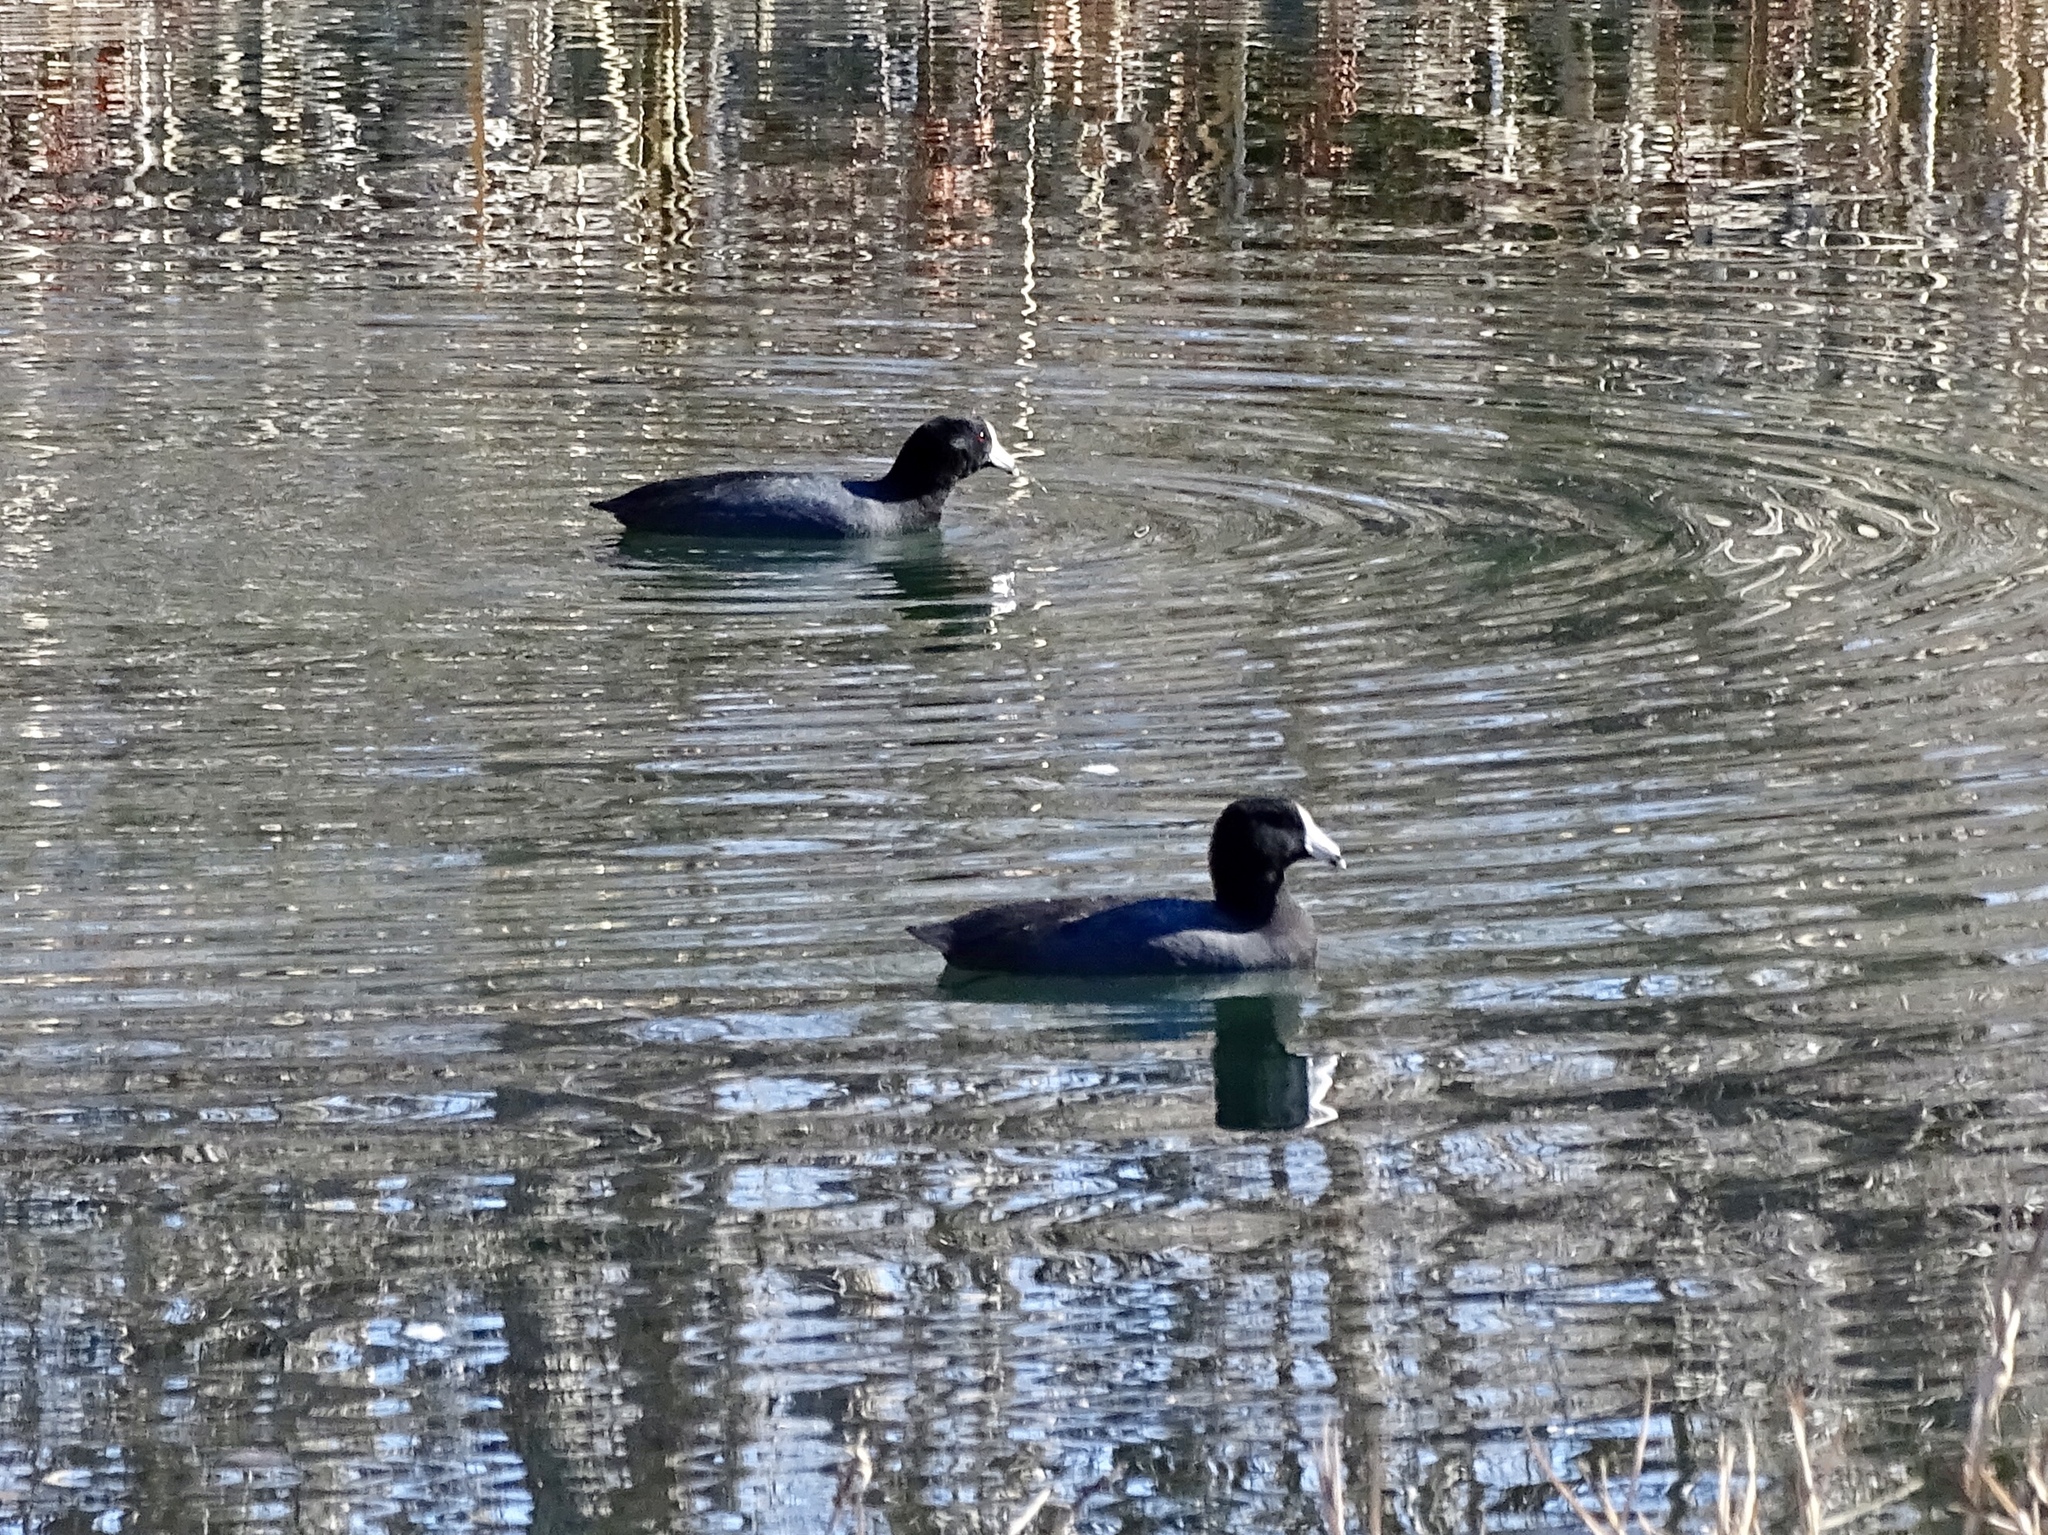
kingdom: Animalia
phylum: Chordata
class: Aves
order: Gruiformes
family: Rallidae
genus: Fulica
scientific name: Fulica americana
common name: American coot
